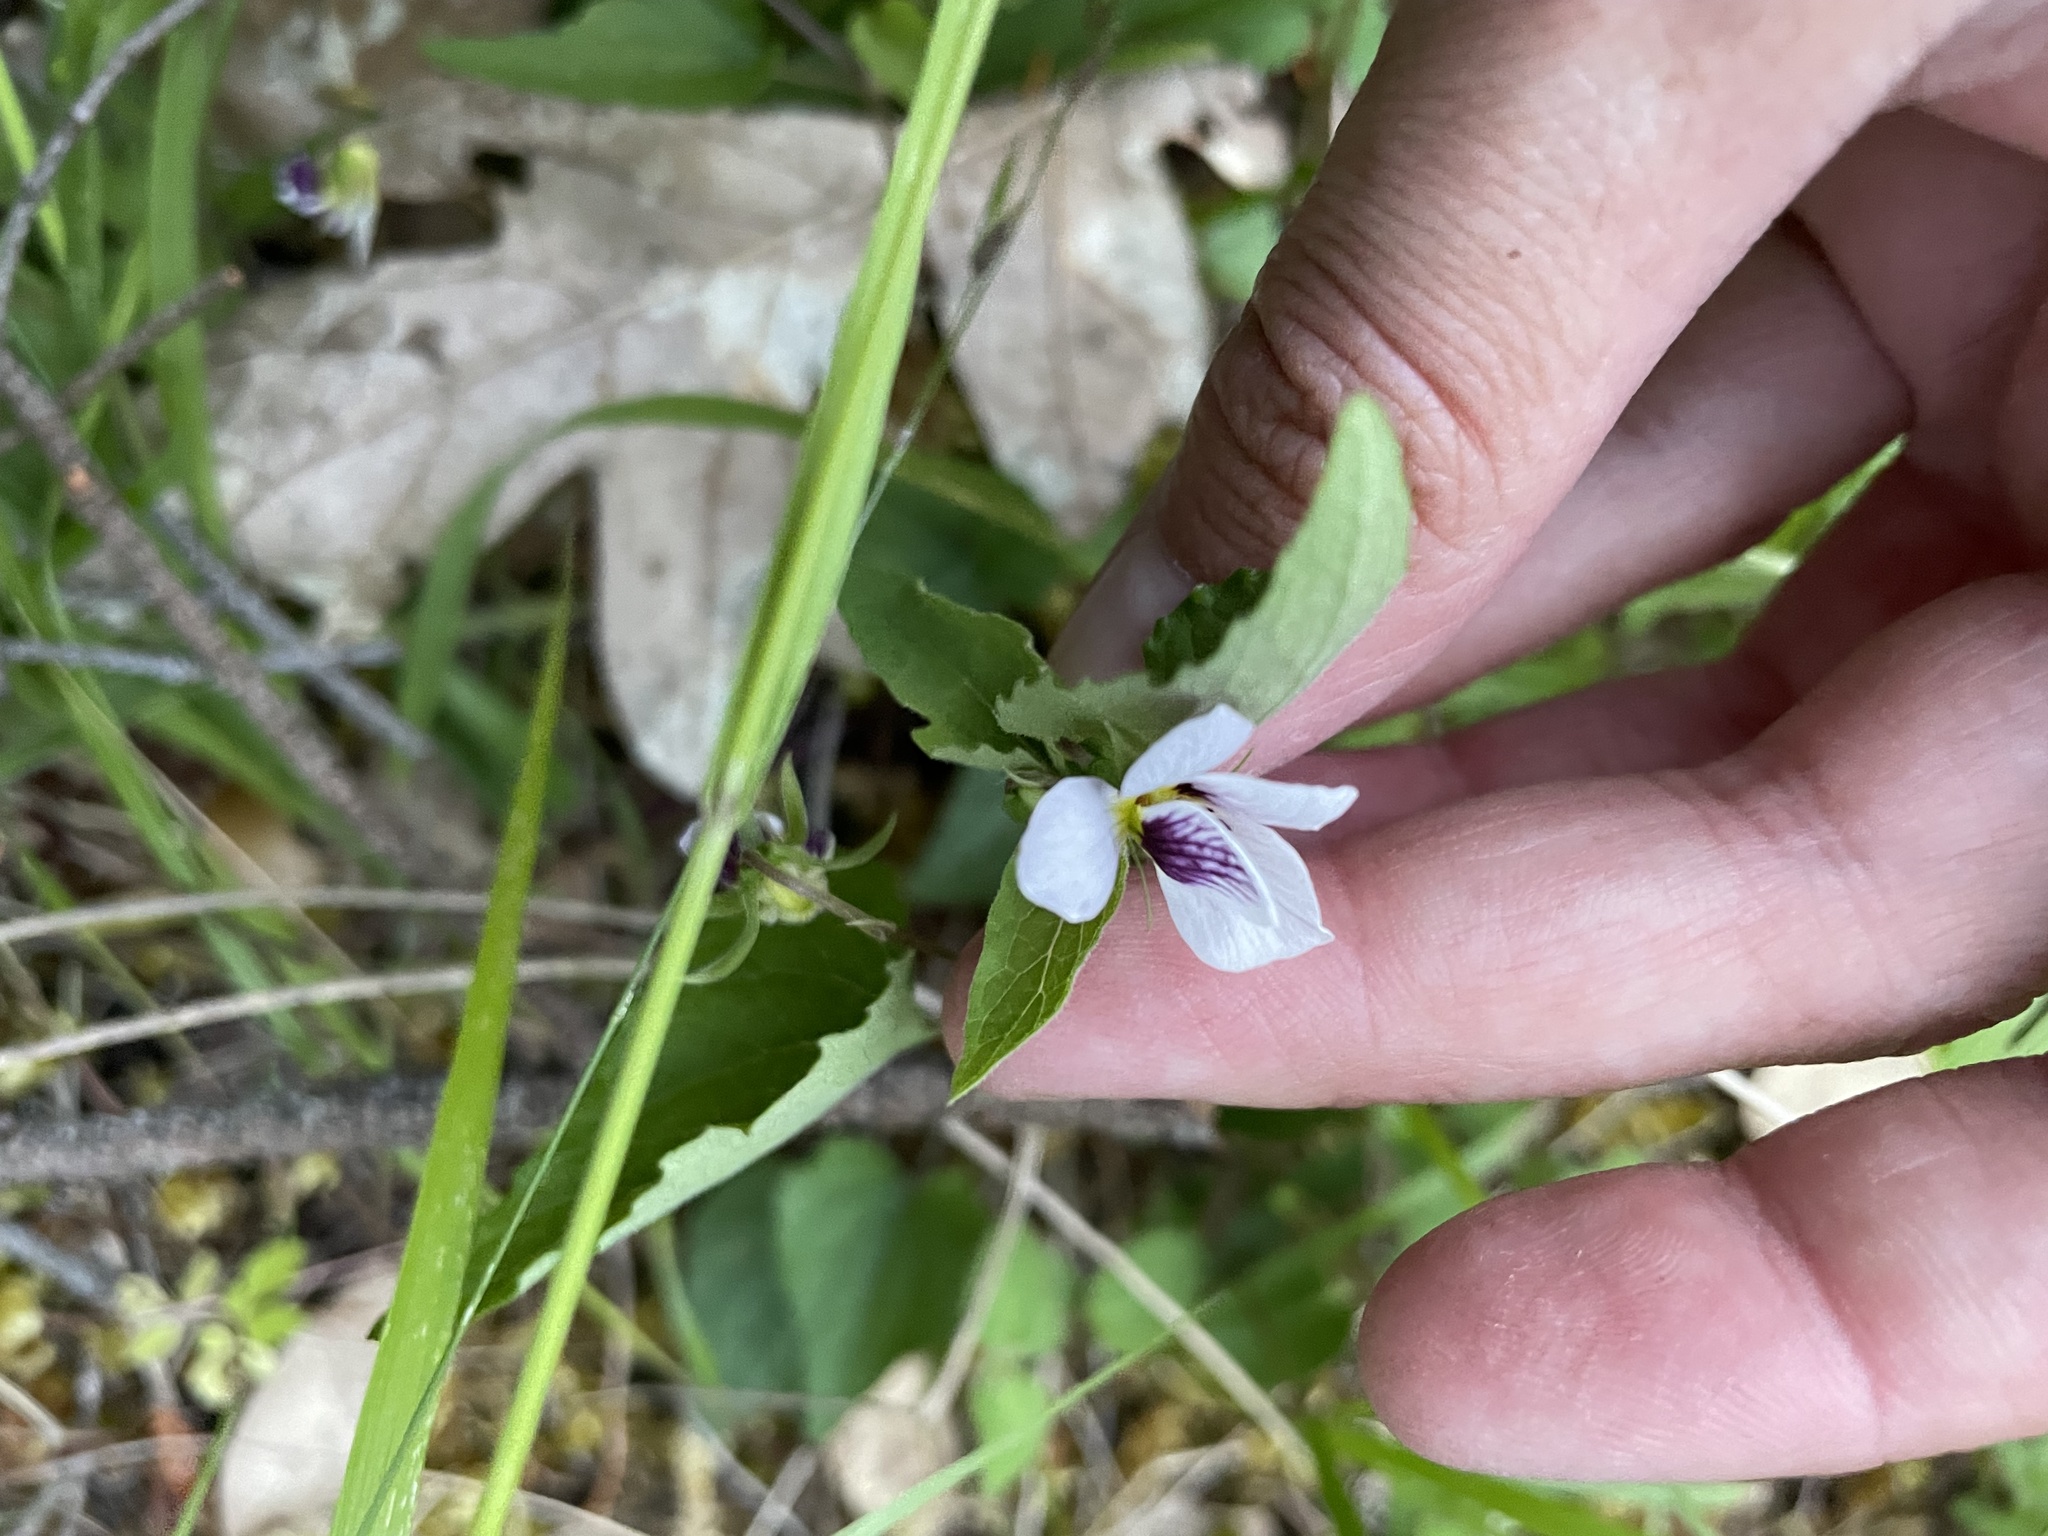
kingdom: Plantae
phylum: Tracheophyta
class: Magnoliopsida
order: Malpighiales
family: Violaceae
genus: Viola
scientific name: Viola ocellata
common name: Western heart's ease
